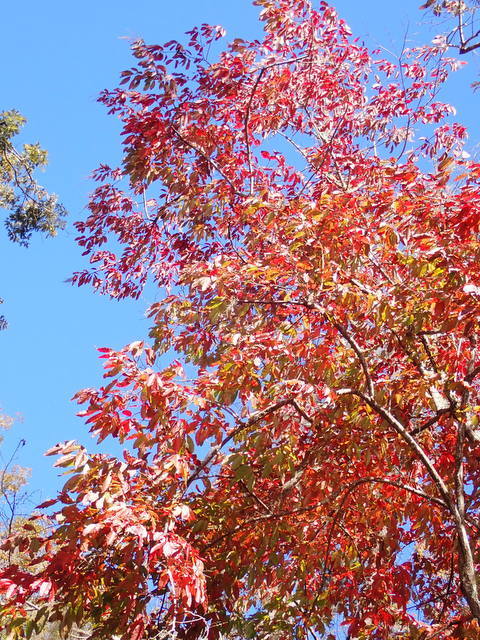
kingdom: Plantae
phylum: Tracheophyta
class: Magnoliopsida
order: Ericales
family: Ericaceae
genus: Oxydendrum
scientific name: Oxydendrum arboreum
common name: Sourwood
